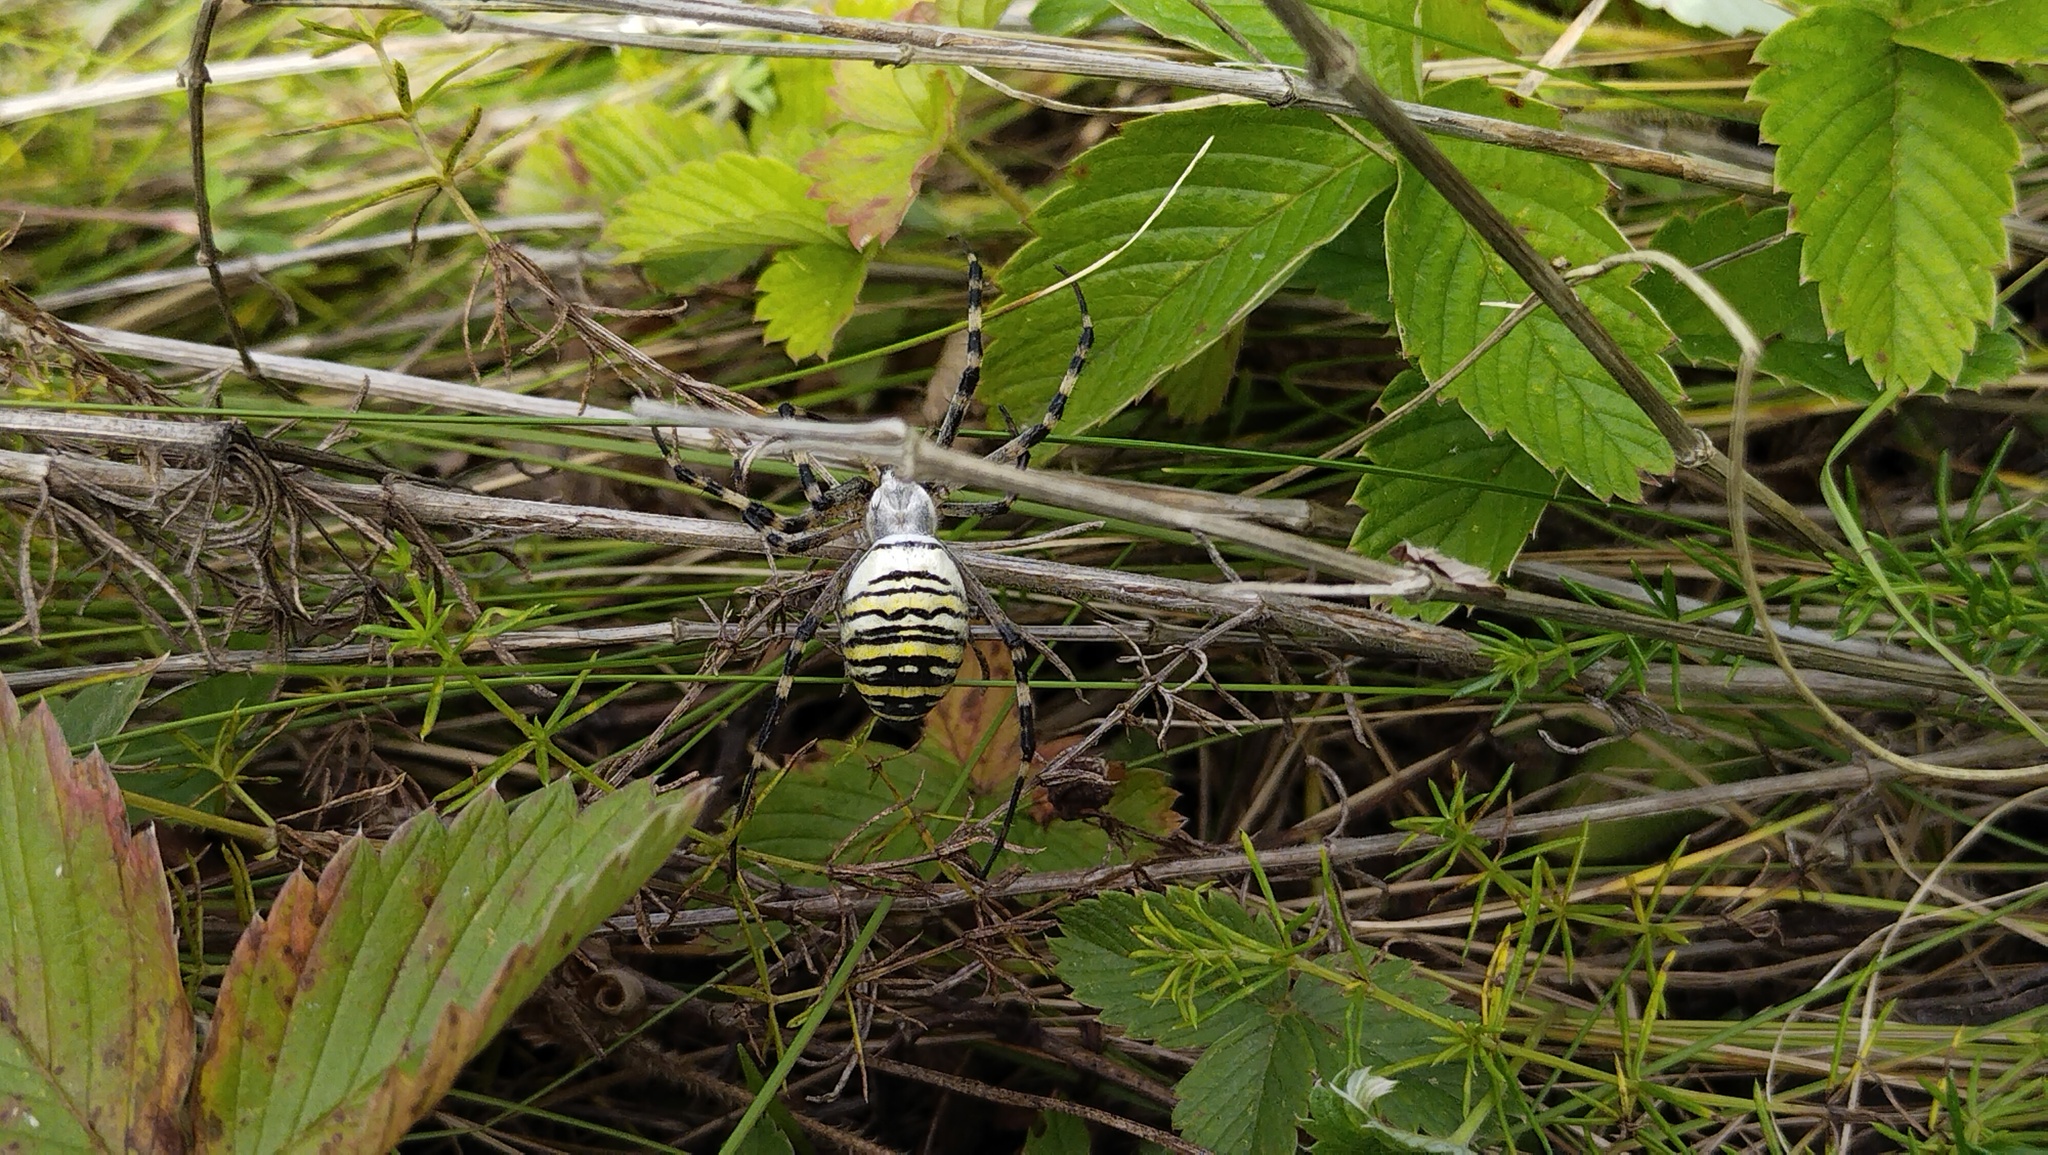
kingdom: Animalia
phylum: Arthropoda
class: Arachnida
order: Araneae
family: Araneidae
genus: Argiope
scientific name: Argiope bruennichi
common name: Wasp spider
